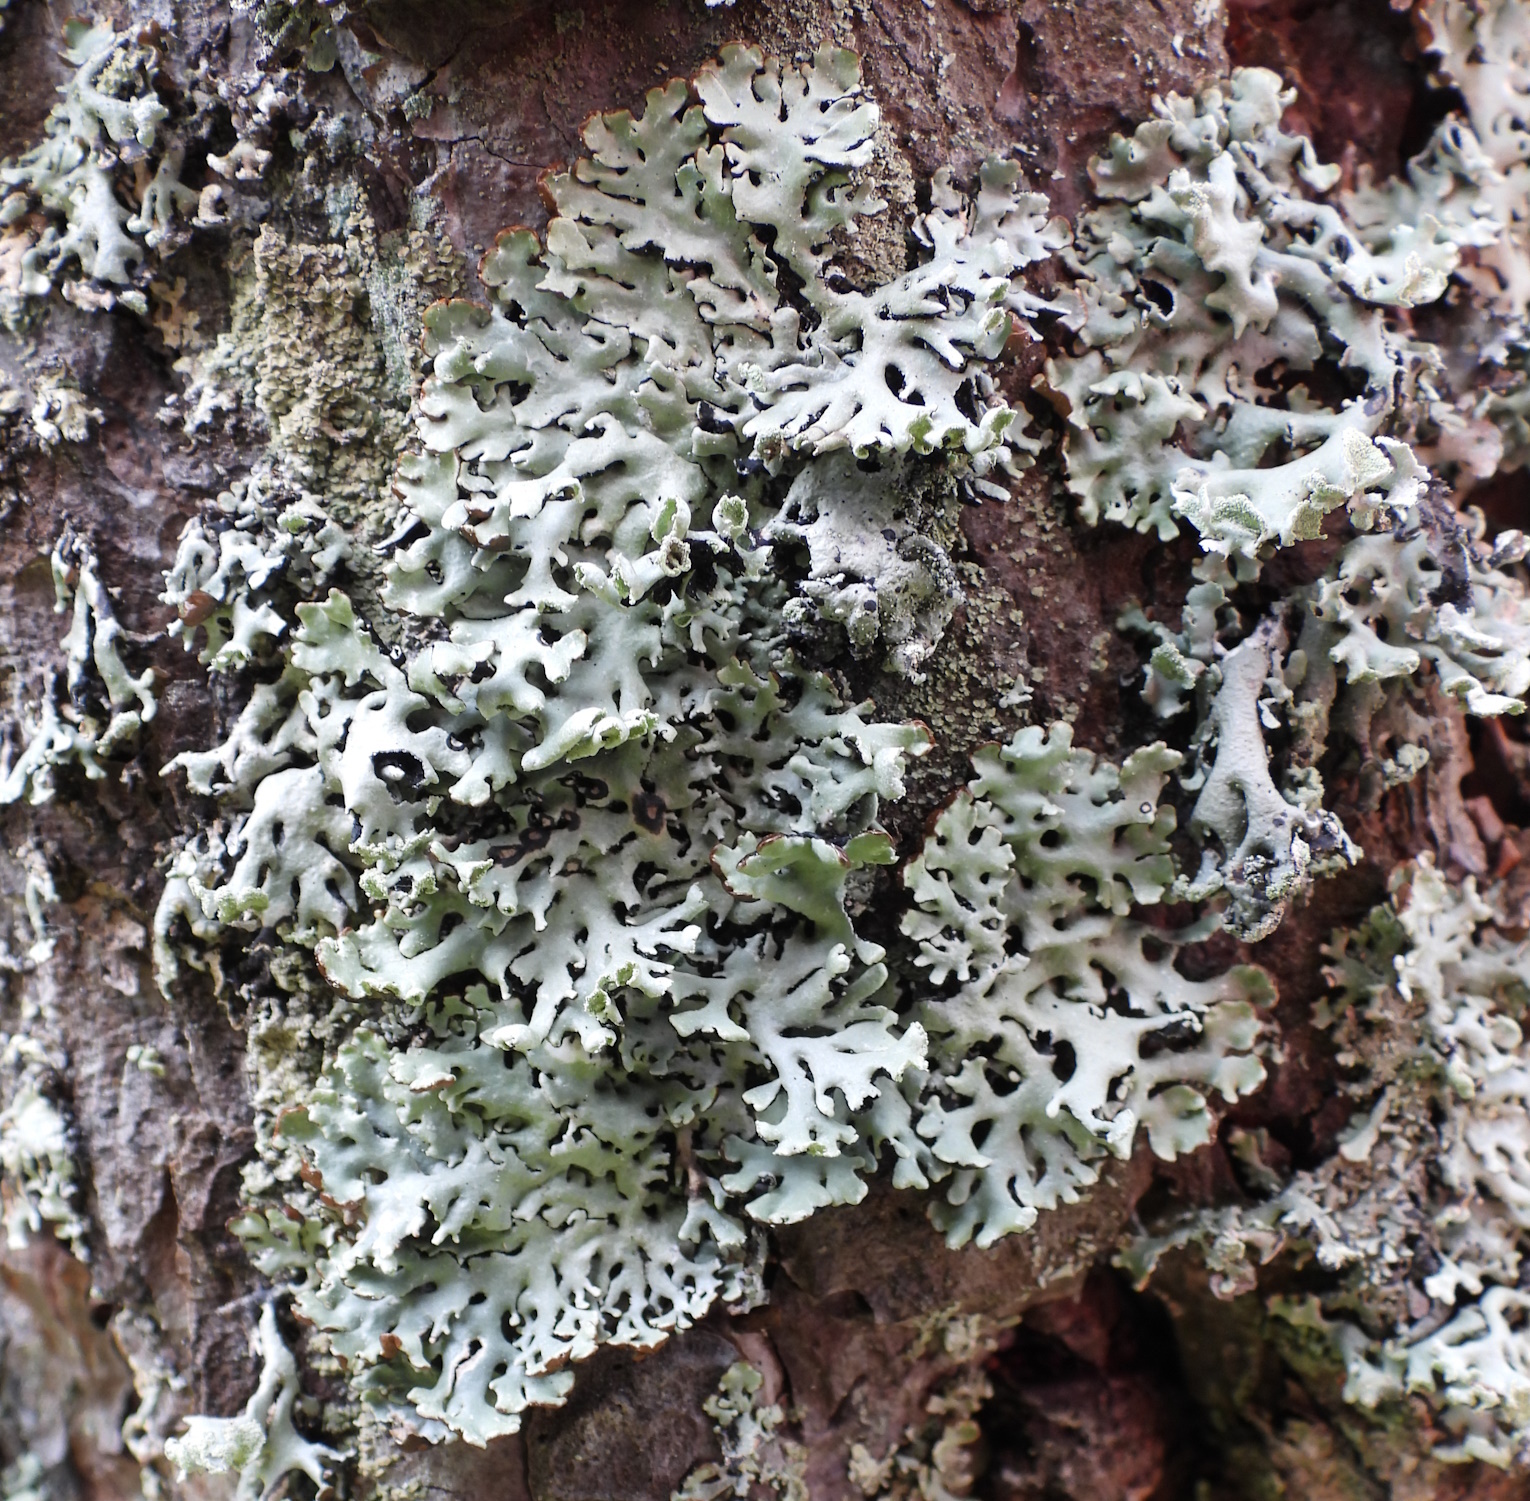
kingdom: Fungi
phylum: Ascomycota
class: Lecanoromycetes
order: Lecanorales
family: Parmeliaceae
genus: Hypogymnia
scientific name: Hypogymnia physodes
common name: Dark crottle
